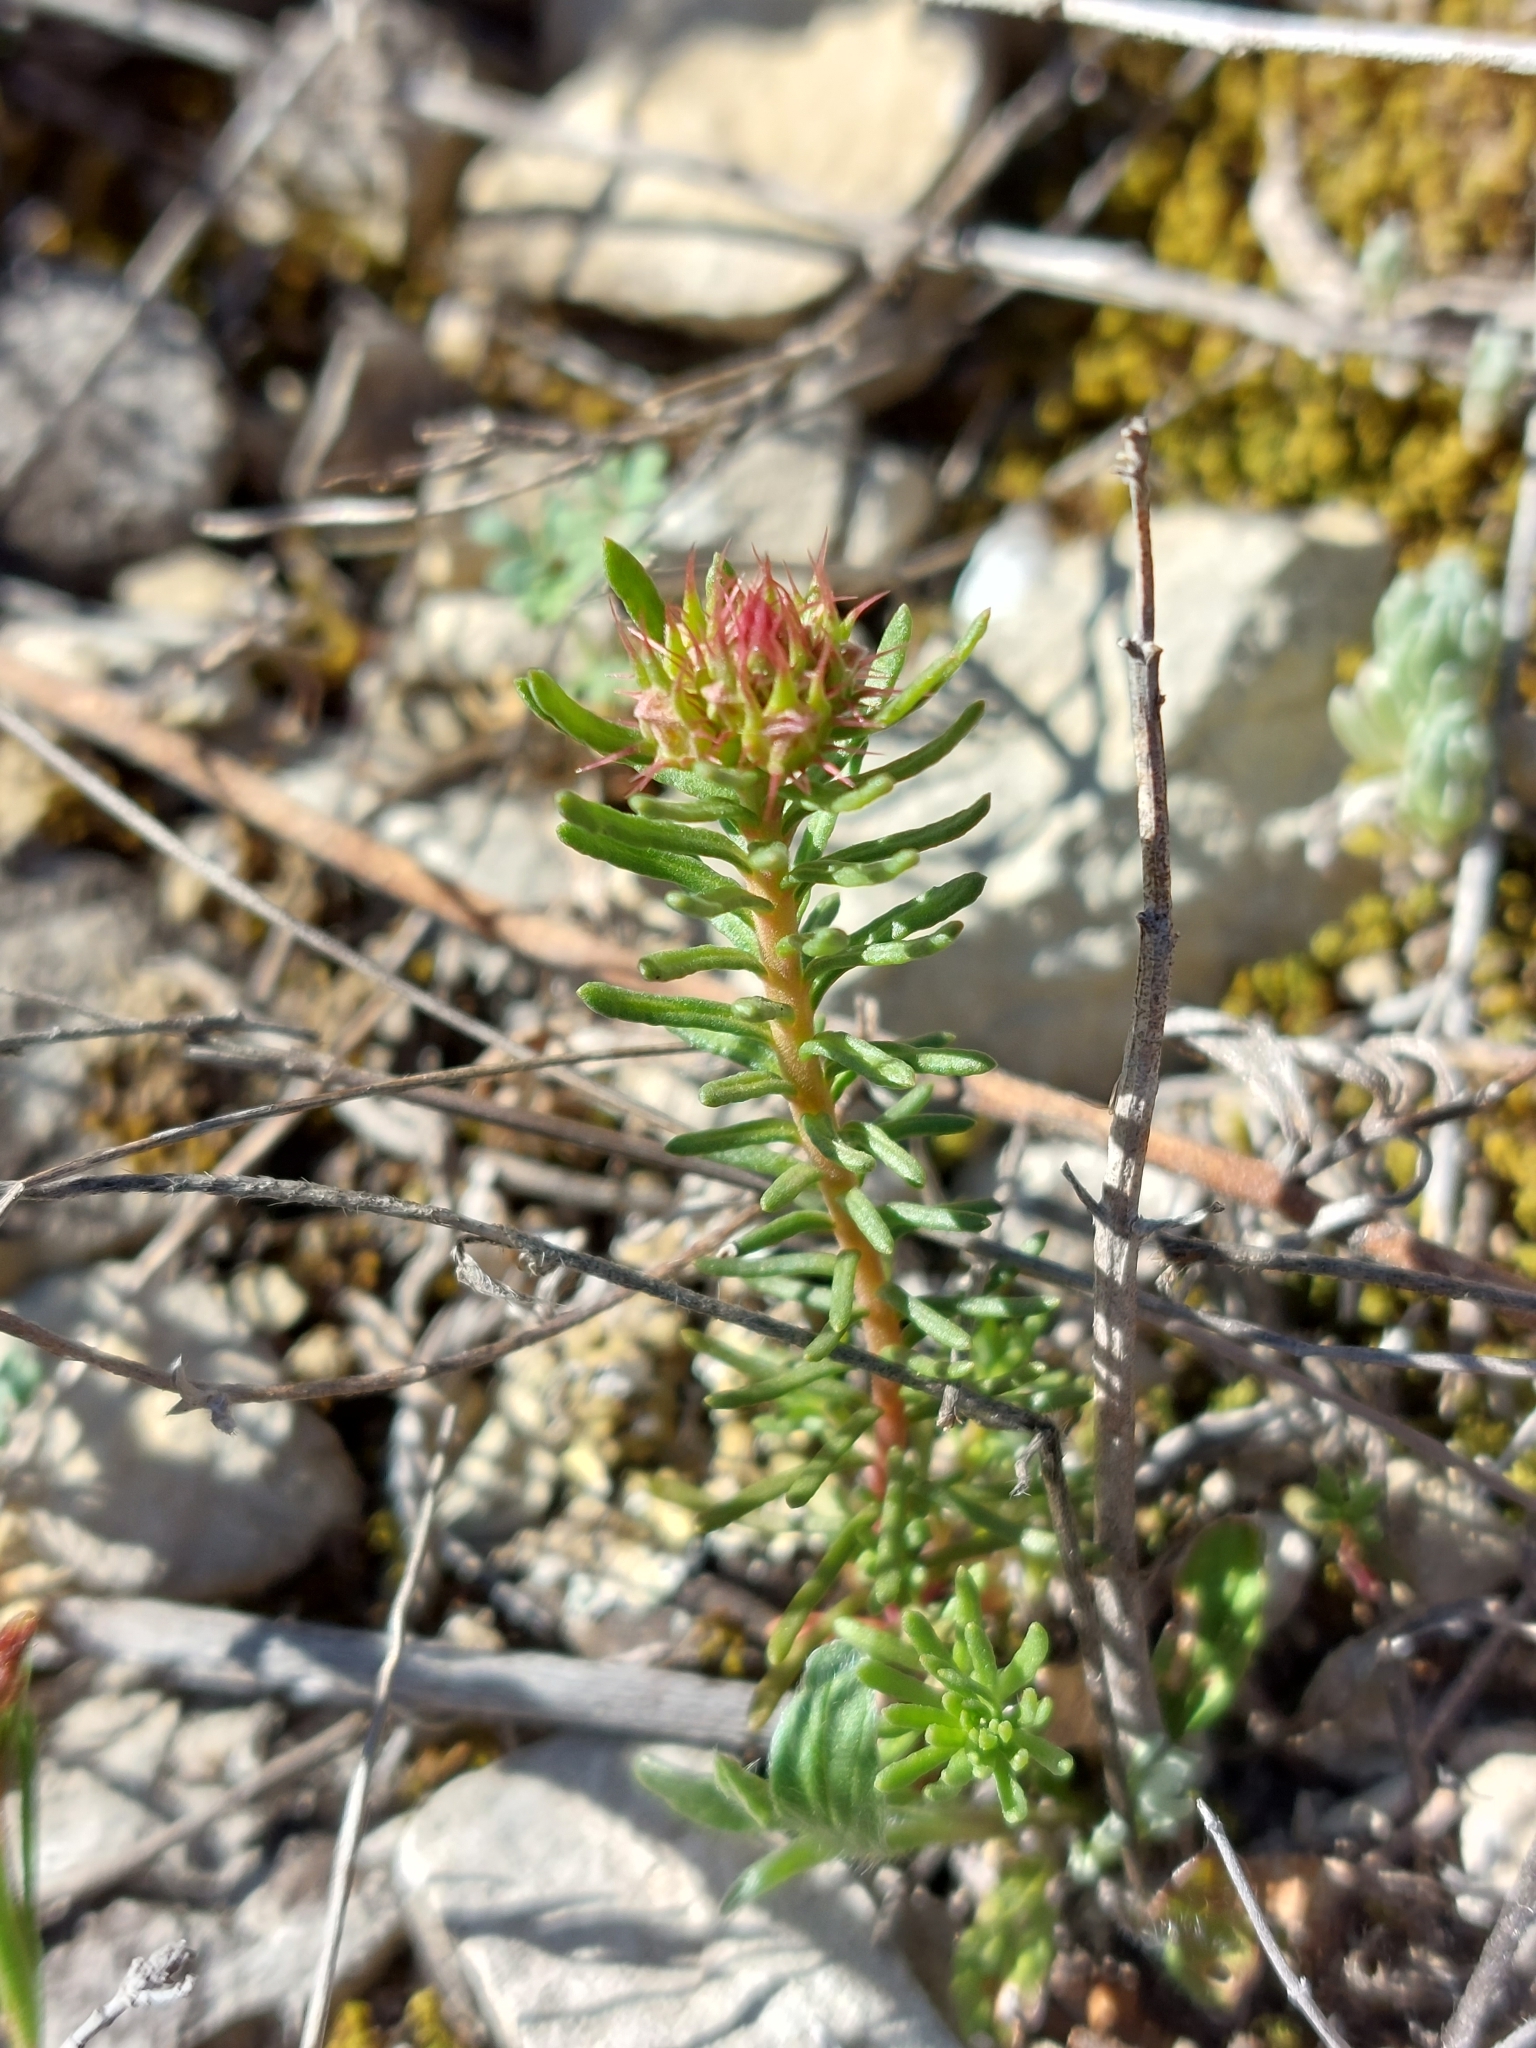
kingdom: Plantae
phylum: Tracheophyta
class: Magnoliopsida
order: Ericales
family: Primulaceae
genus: Coris
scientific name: Coris monspeliensis
